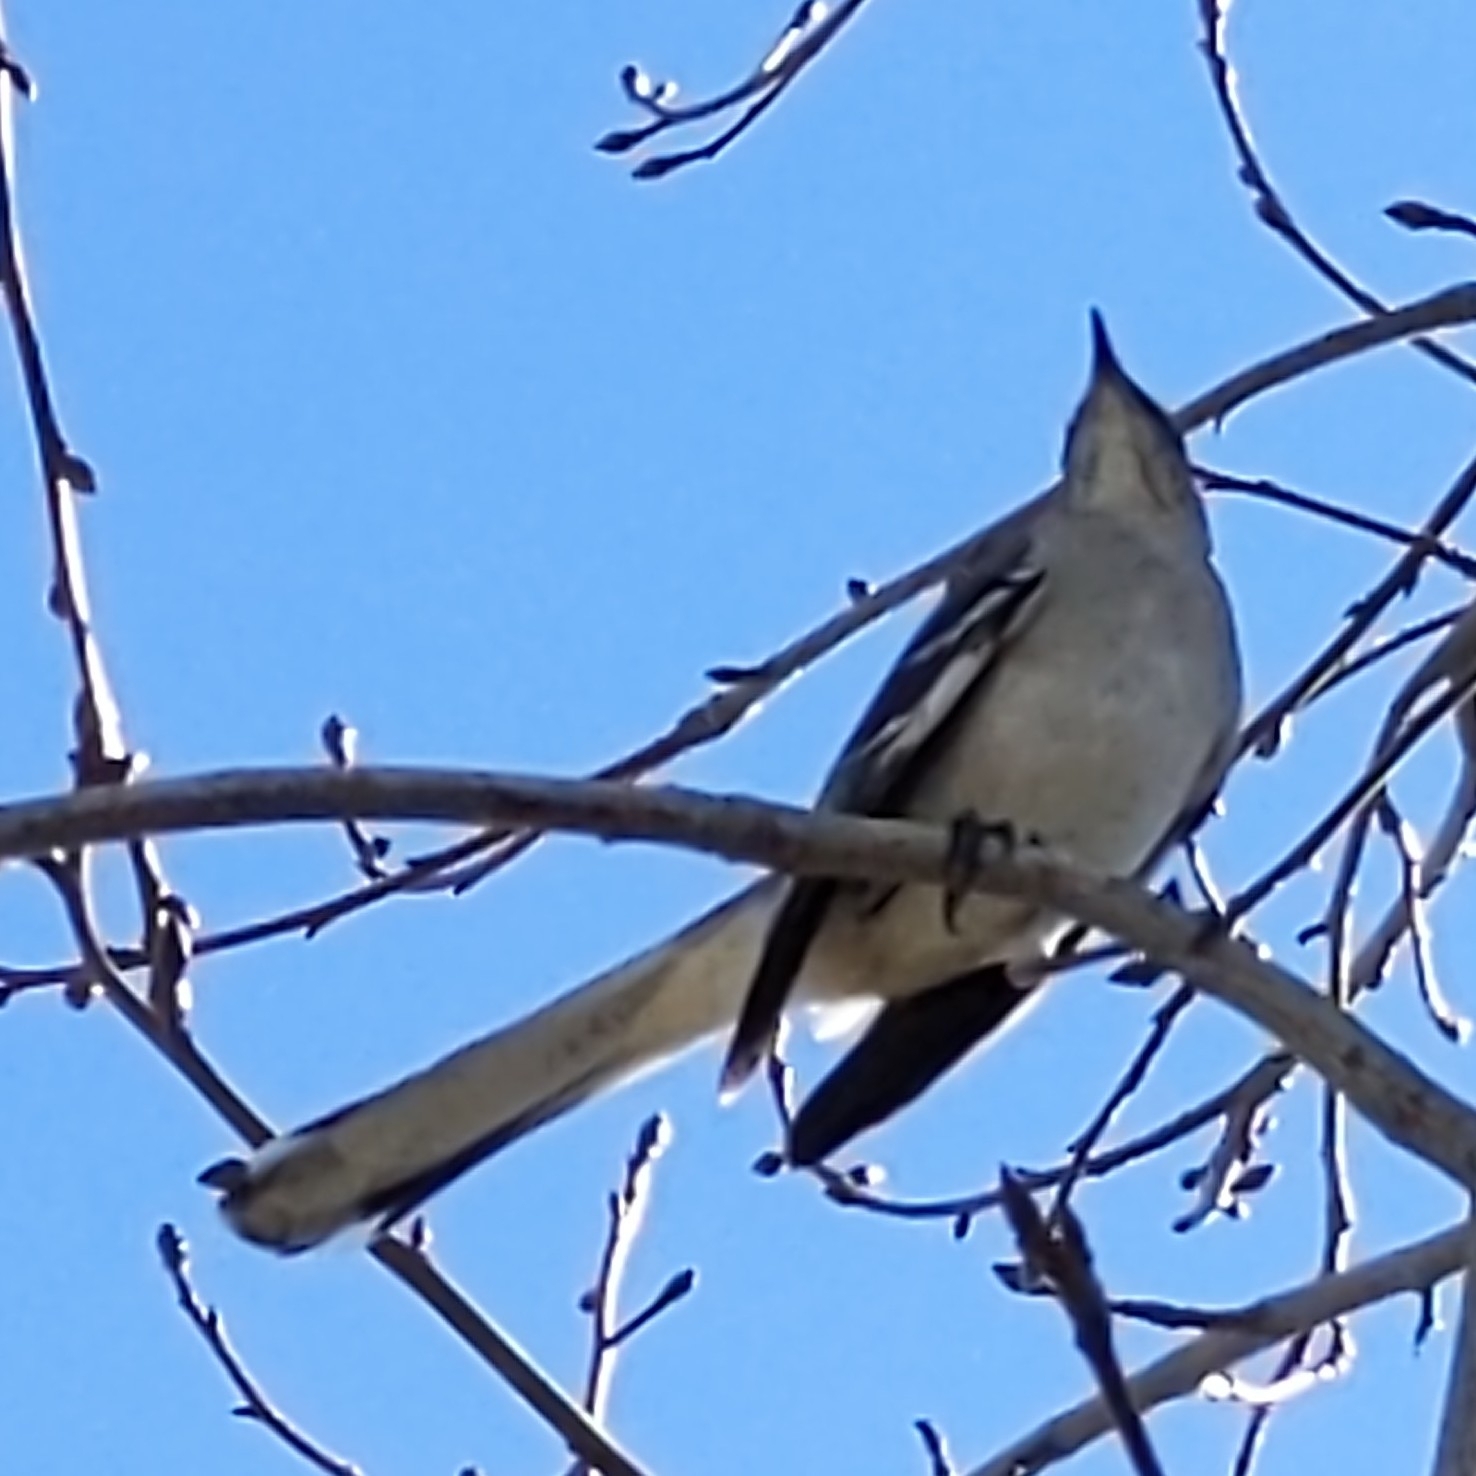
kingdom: Animalia
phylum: Chordata
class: Aves
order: Passeriformes
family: Mimidae
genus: Mimus
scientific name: Mimus polyglottos
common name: Northern mockingbird
